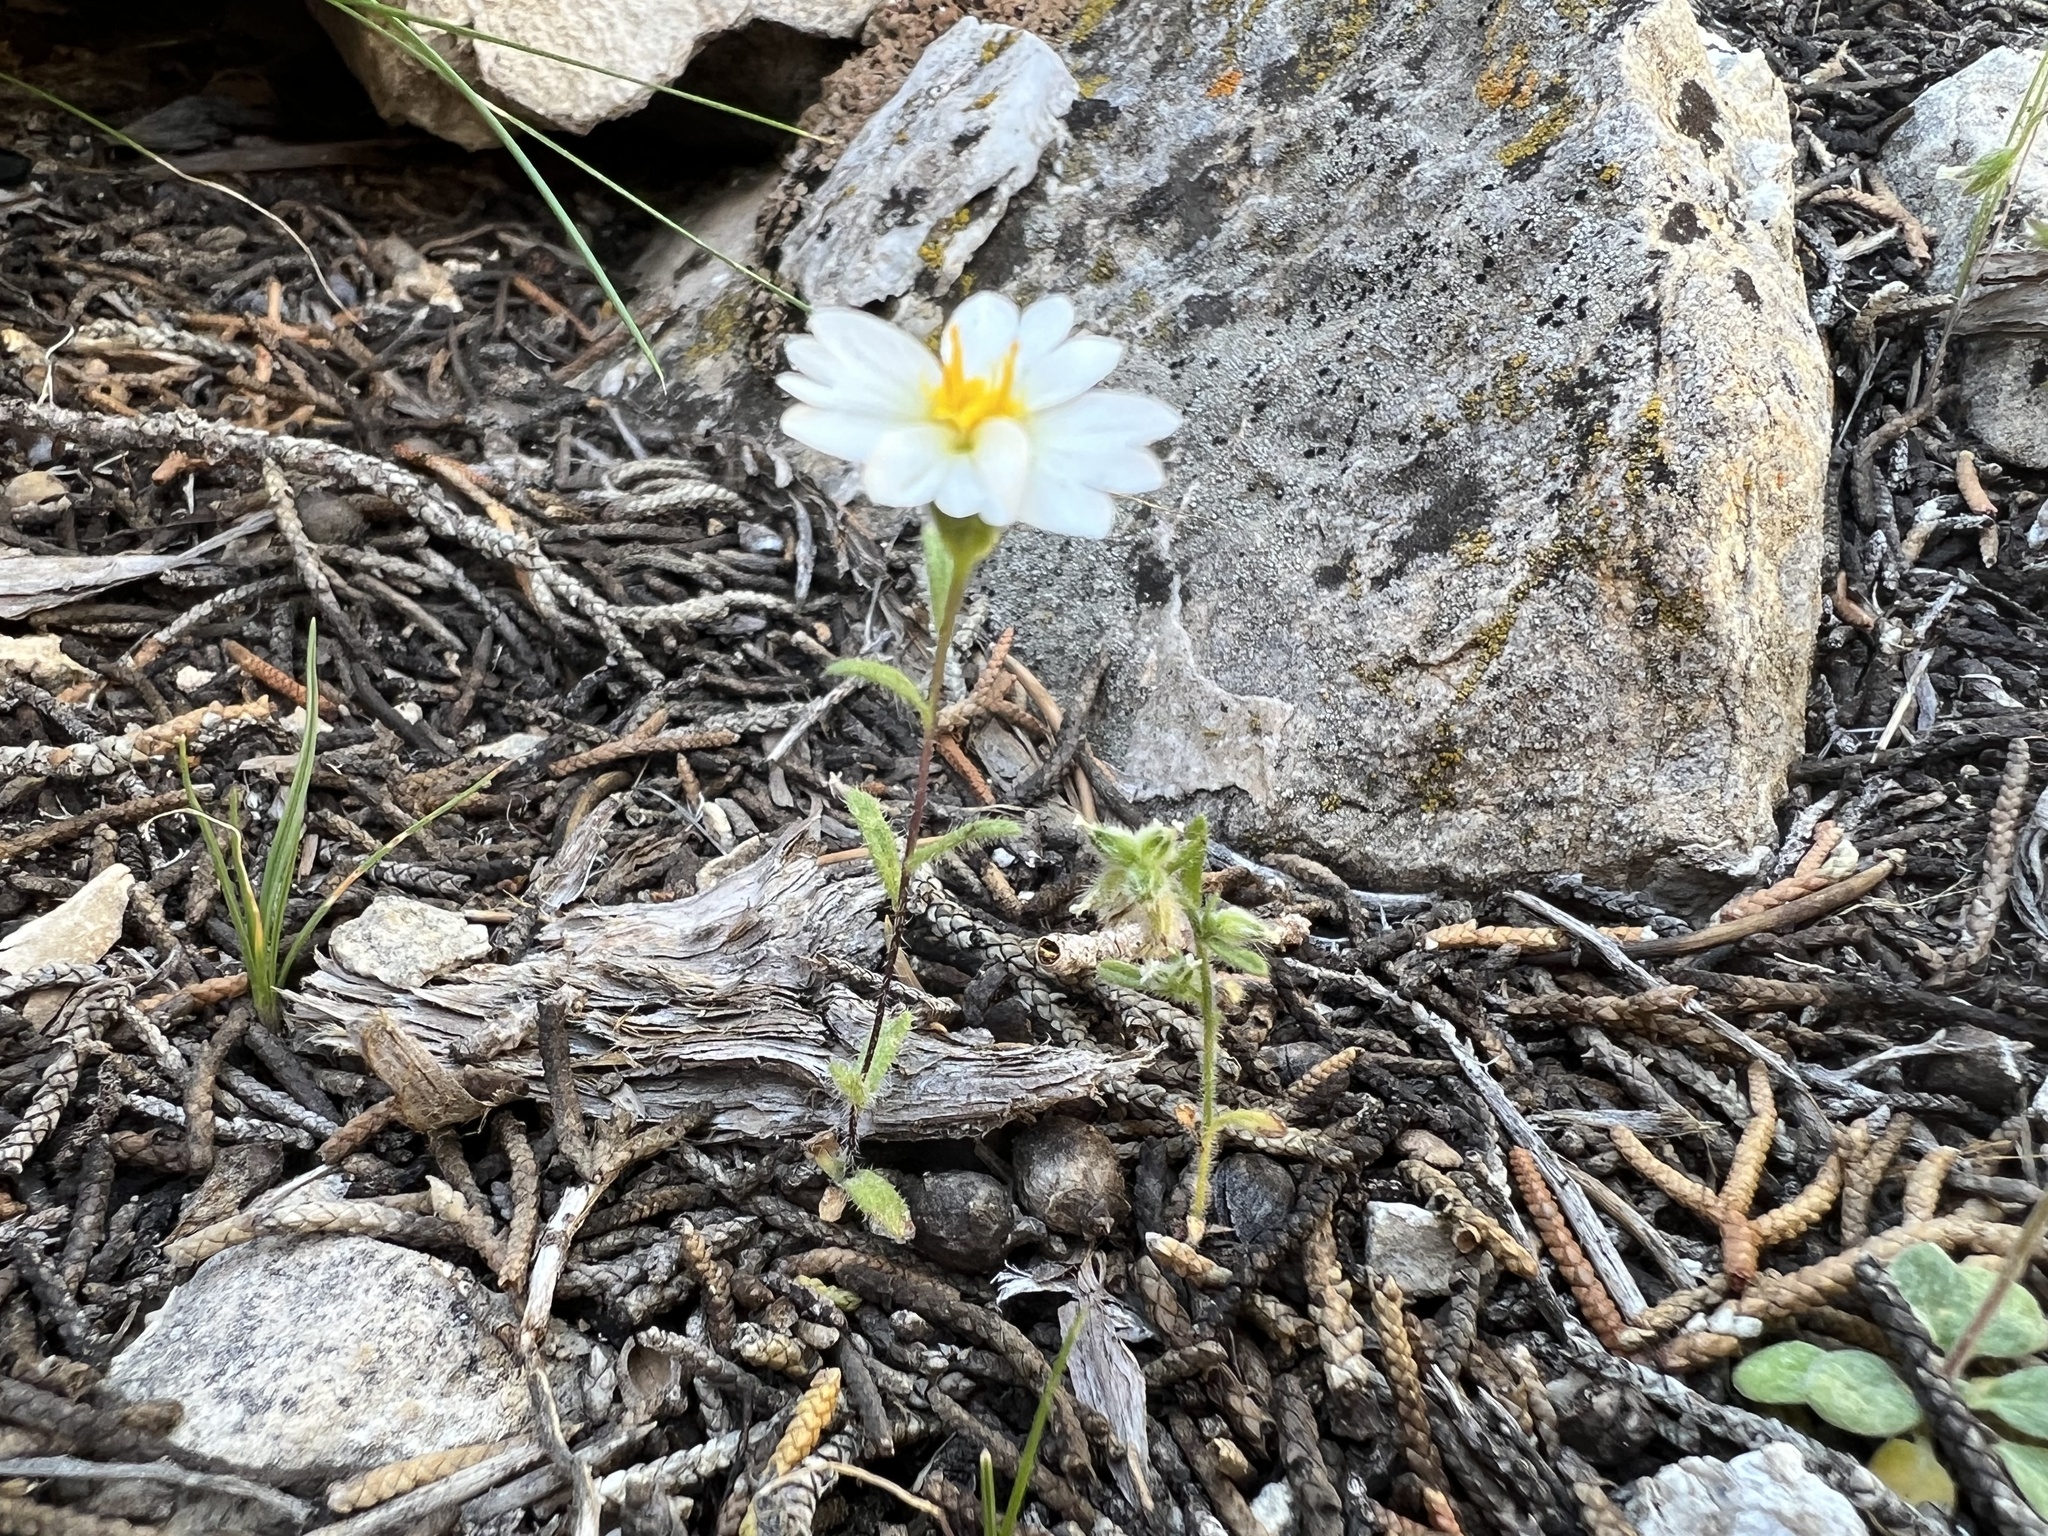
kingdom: Plantae
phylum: Tracheophyta
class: Magnoliopsida
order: Asterales
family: Asteraceae
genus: Layia
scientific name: Layia glandulosa
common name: White layia
